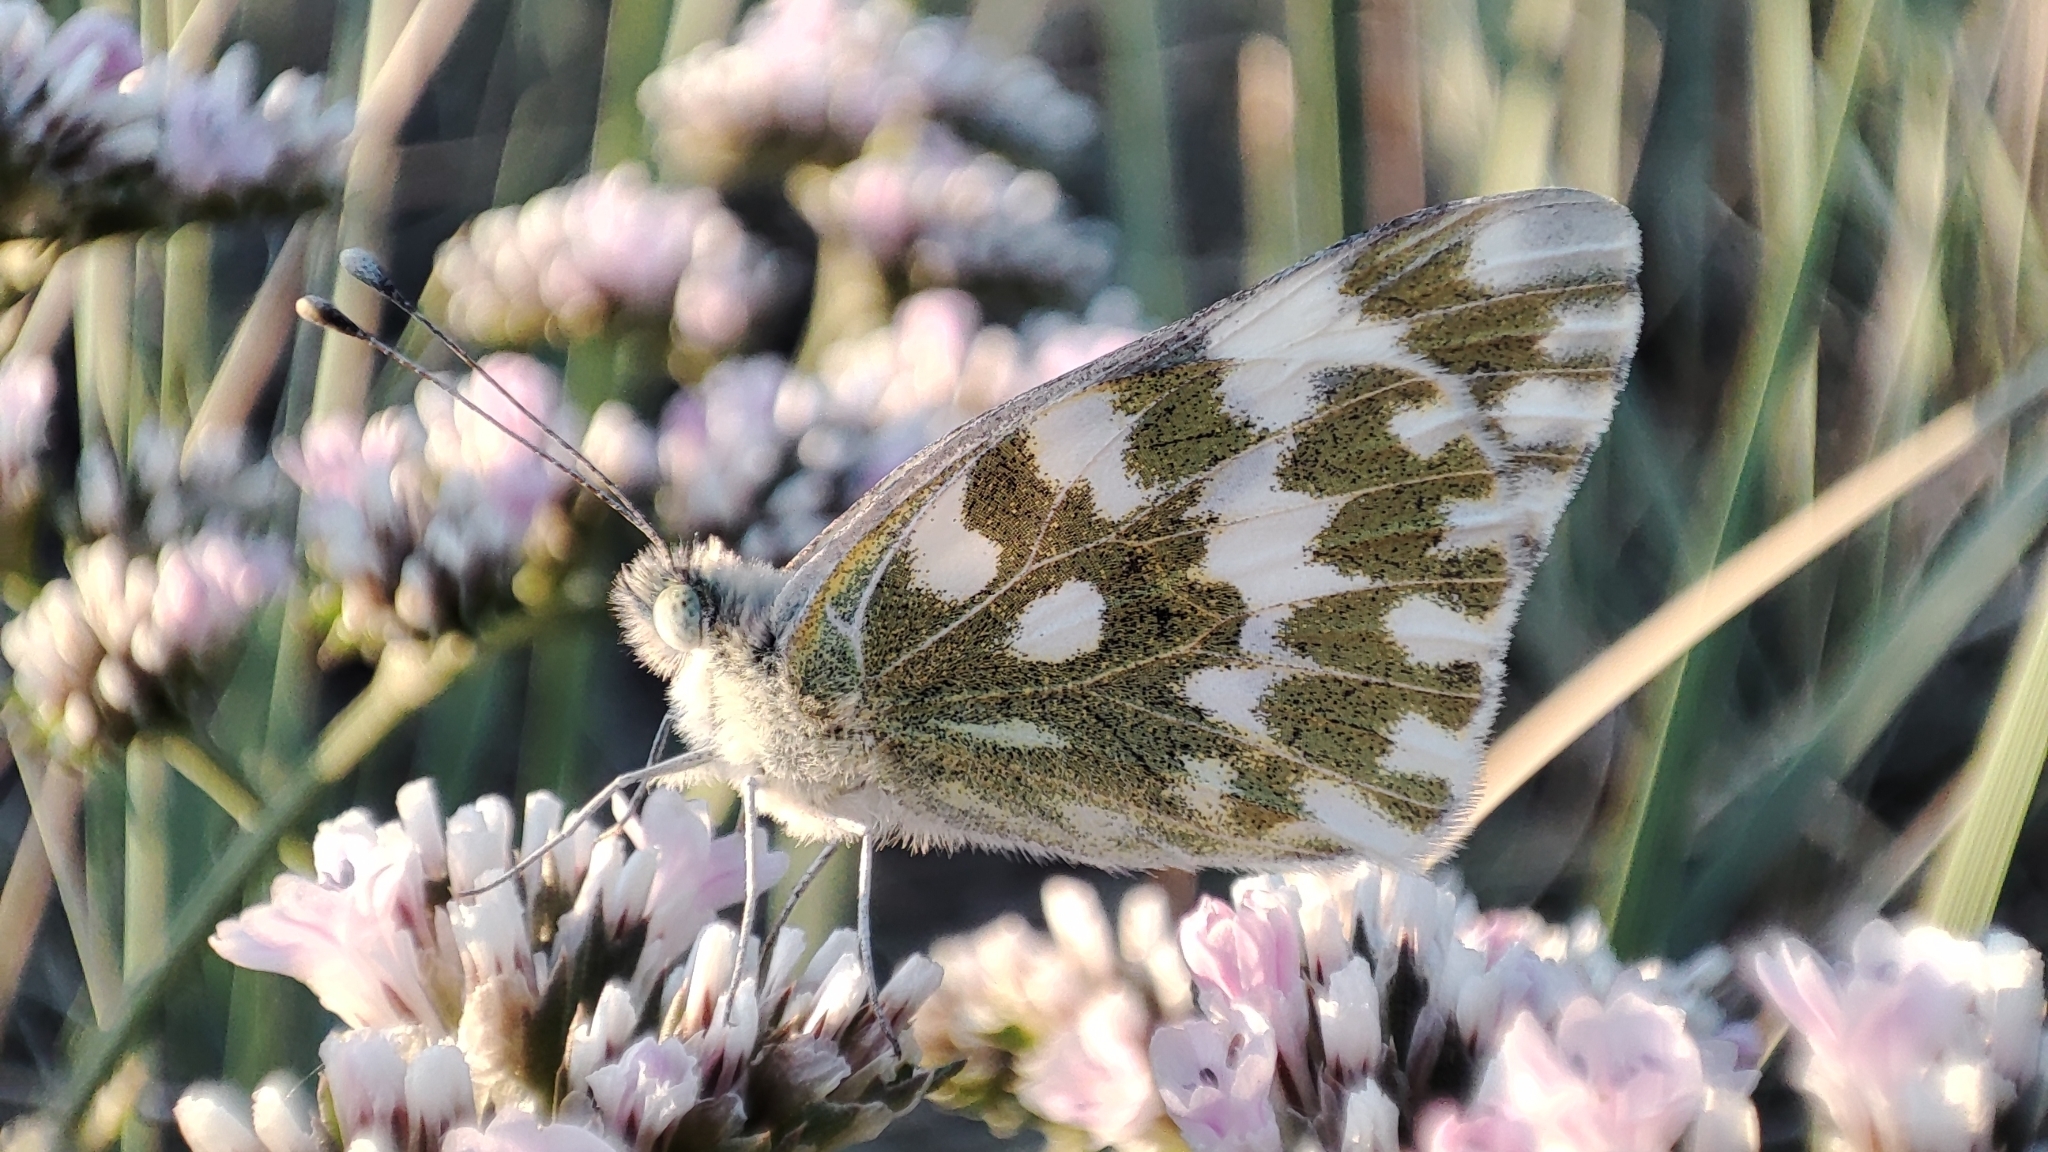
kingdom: Animalia
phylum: Arthropoda
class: Insecta
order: Lepidoptera
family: Pieridae
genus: Pontia
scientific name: Pontia edusa
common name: Eastern bath white
